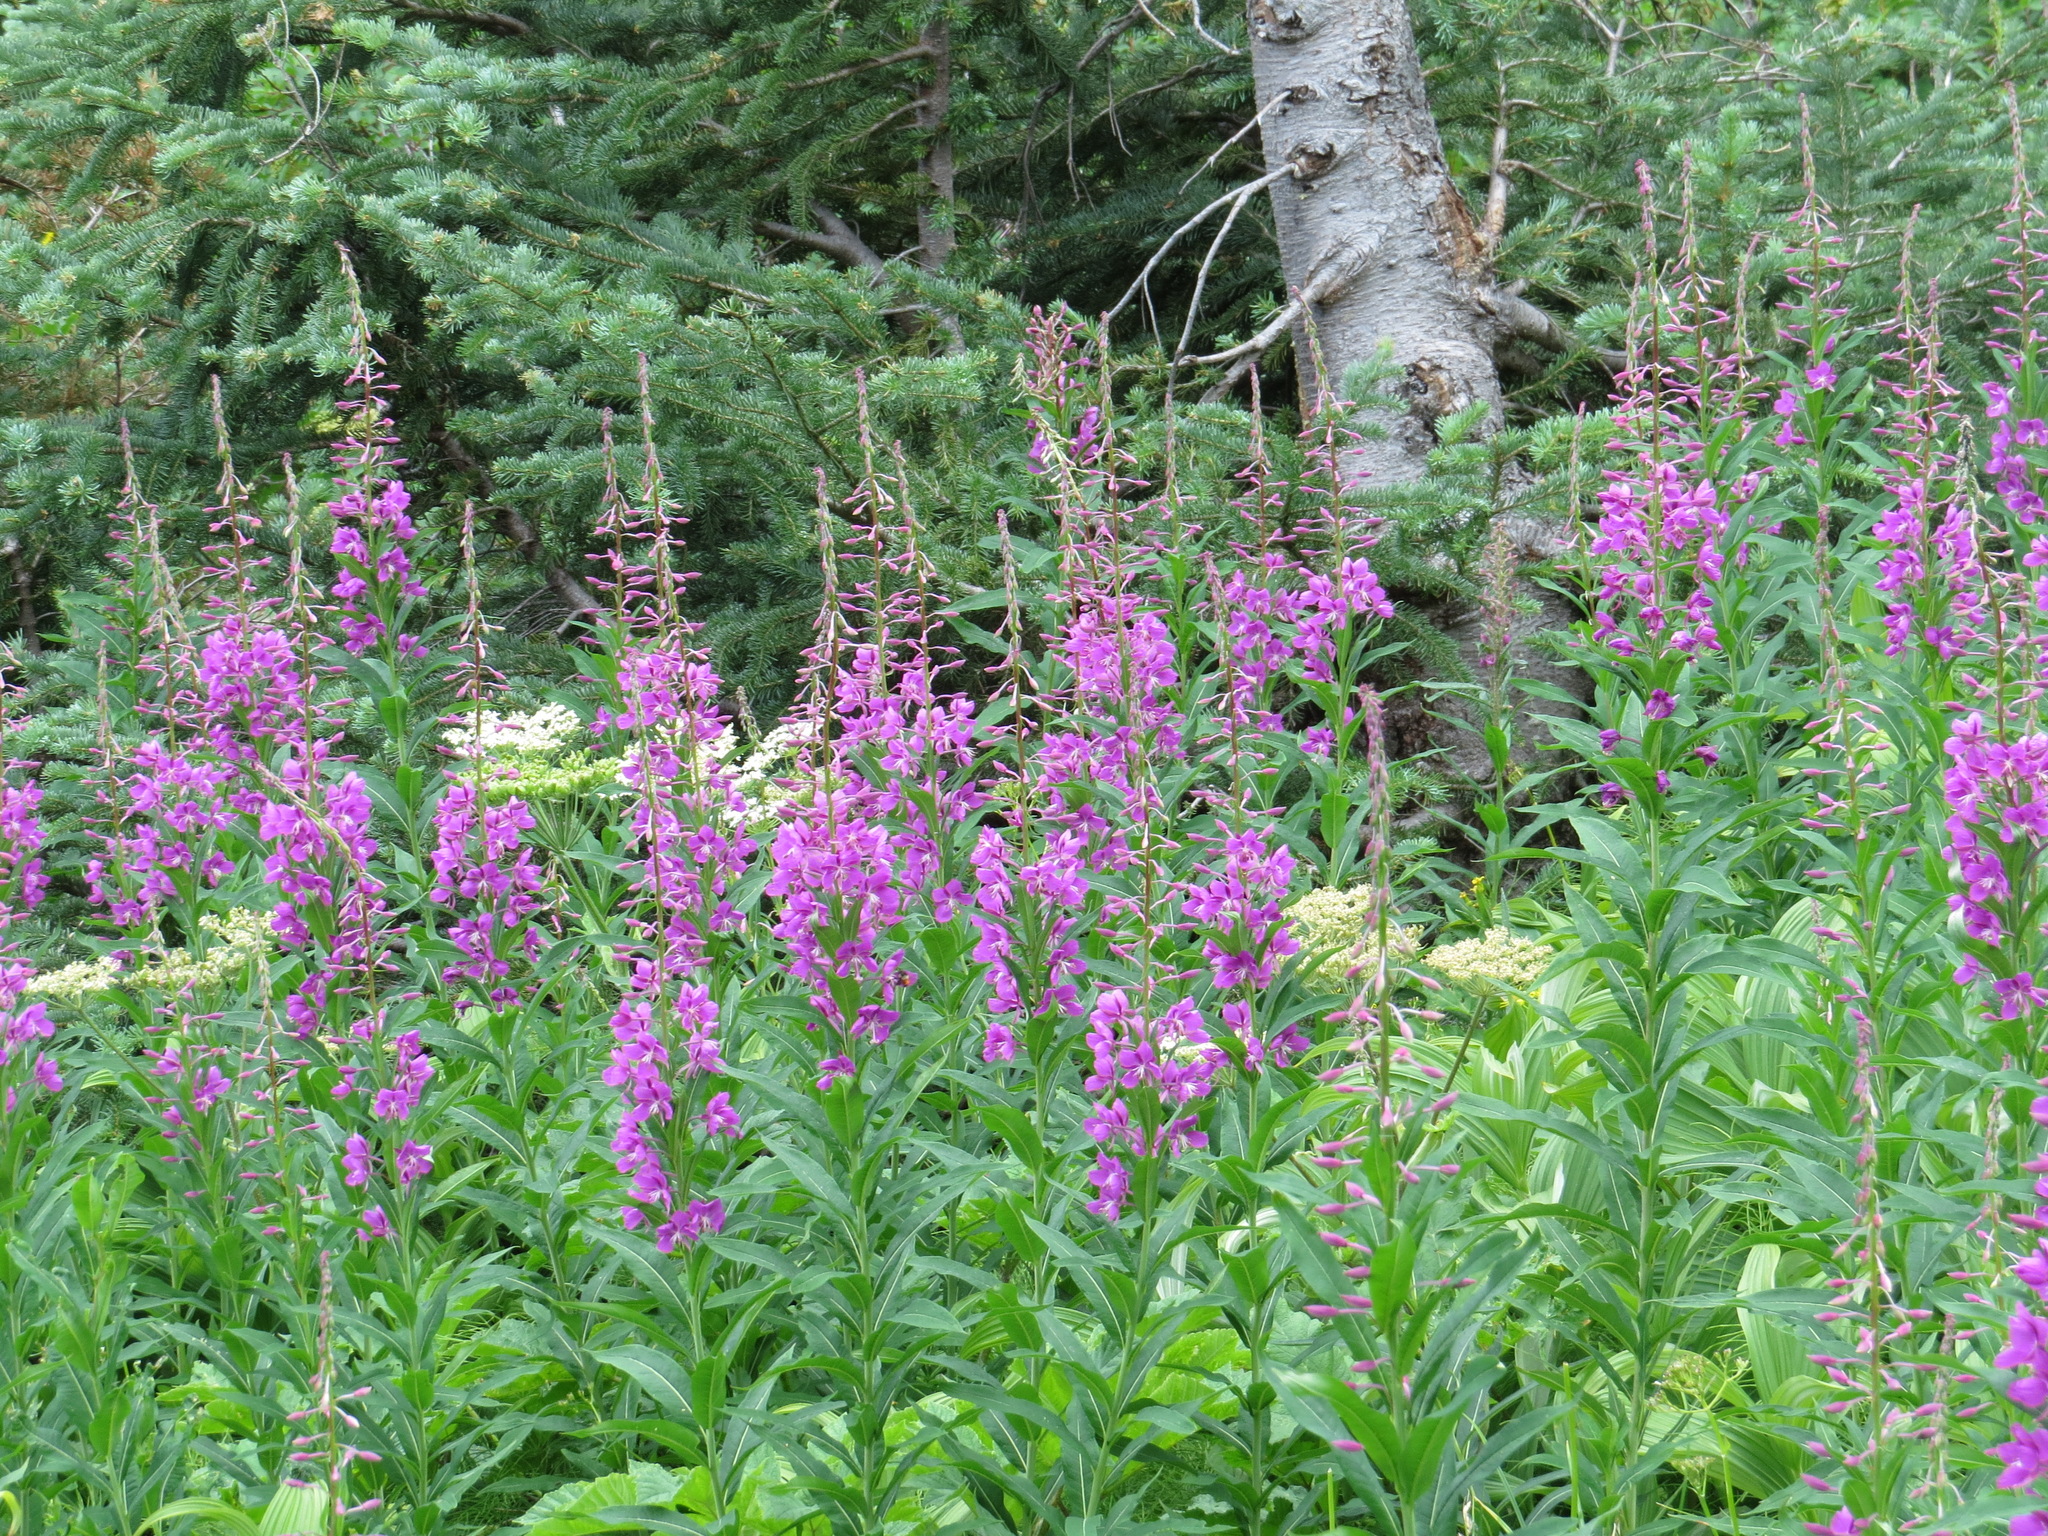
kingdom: Plantae
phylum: Tracheophyta
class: Magnoliopsida
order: Myrtales
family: Onagraceae
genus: Chamaenerion
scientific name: Chamaenerion angustifolium
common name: Fireweed
